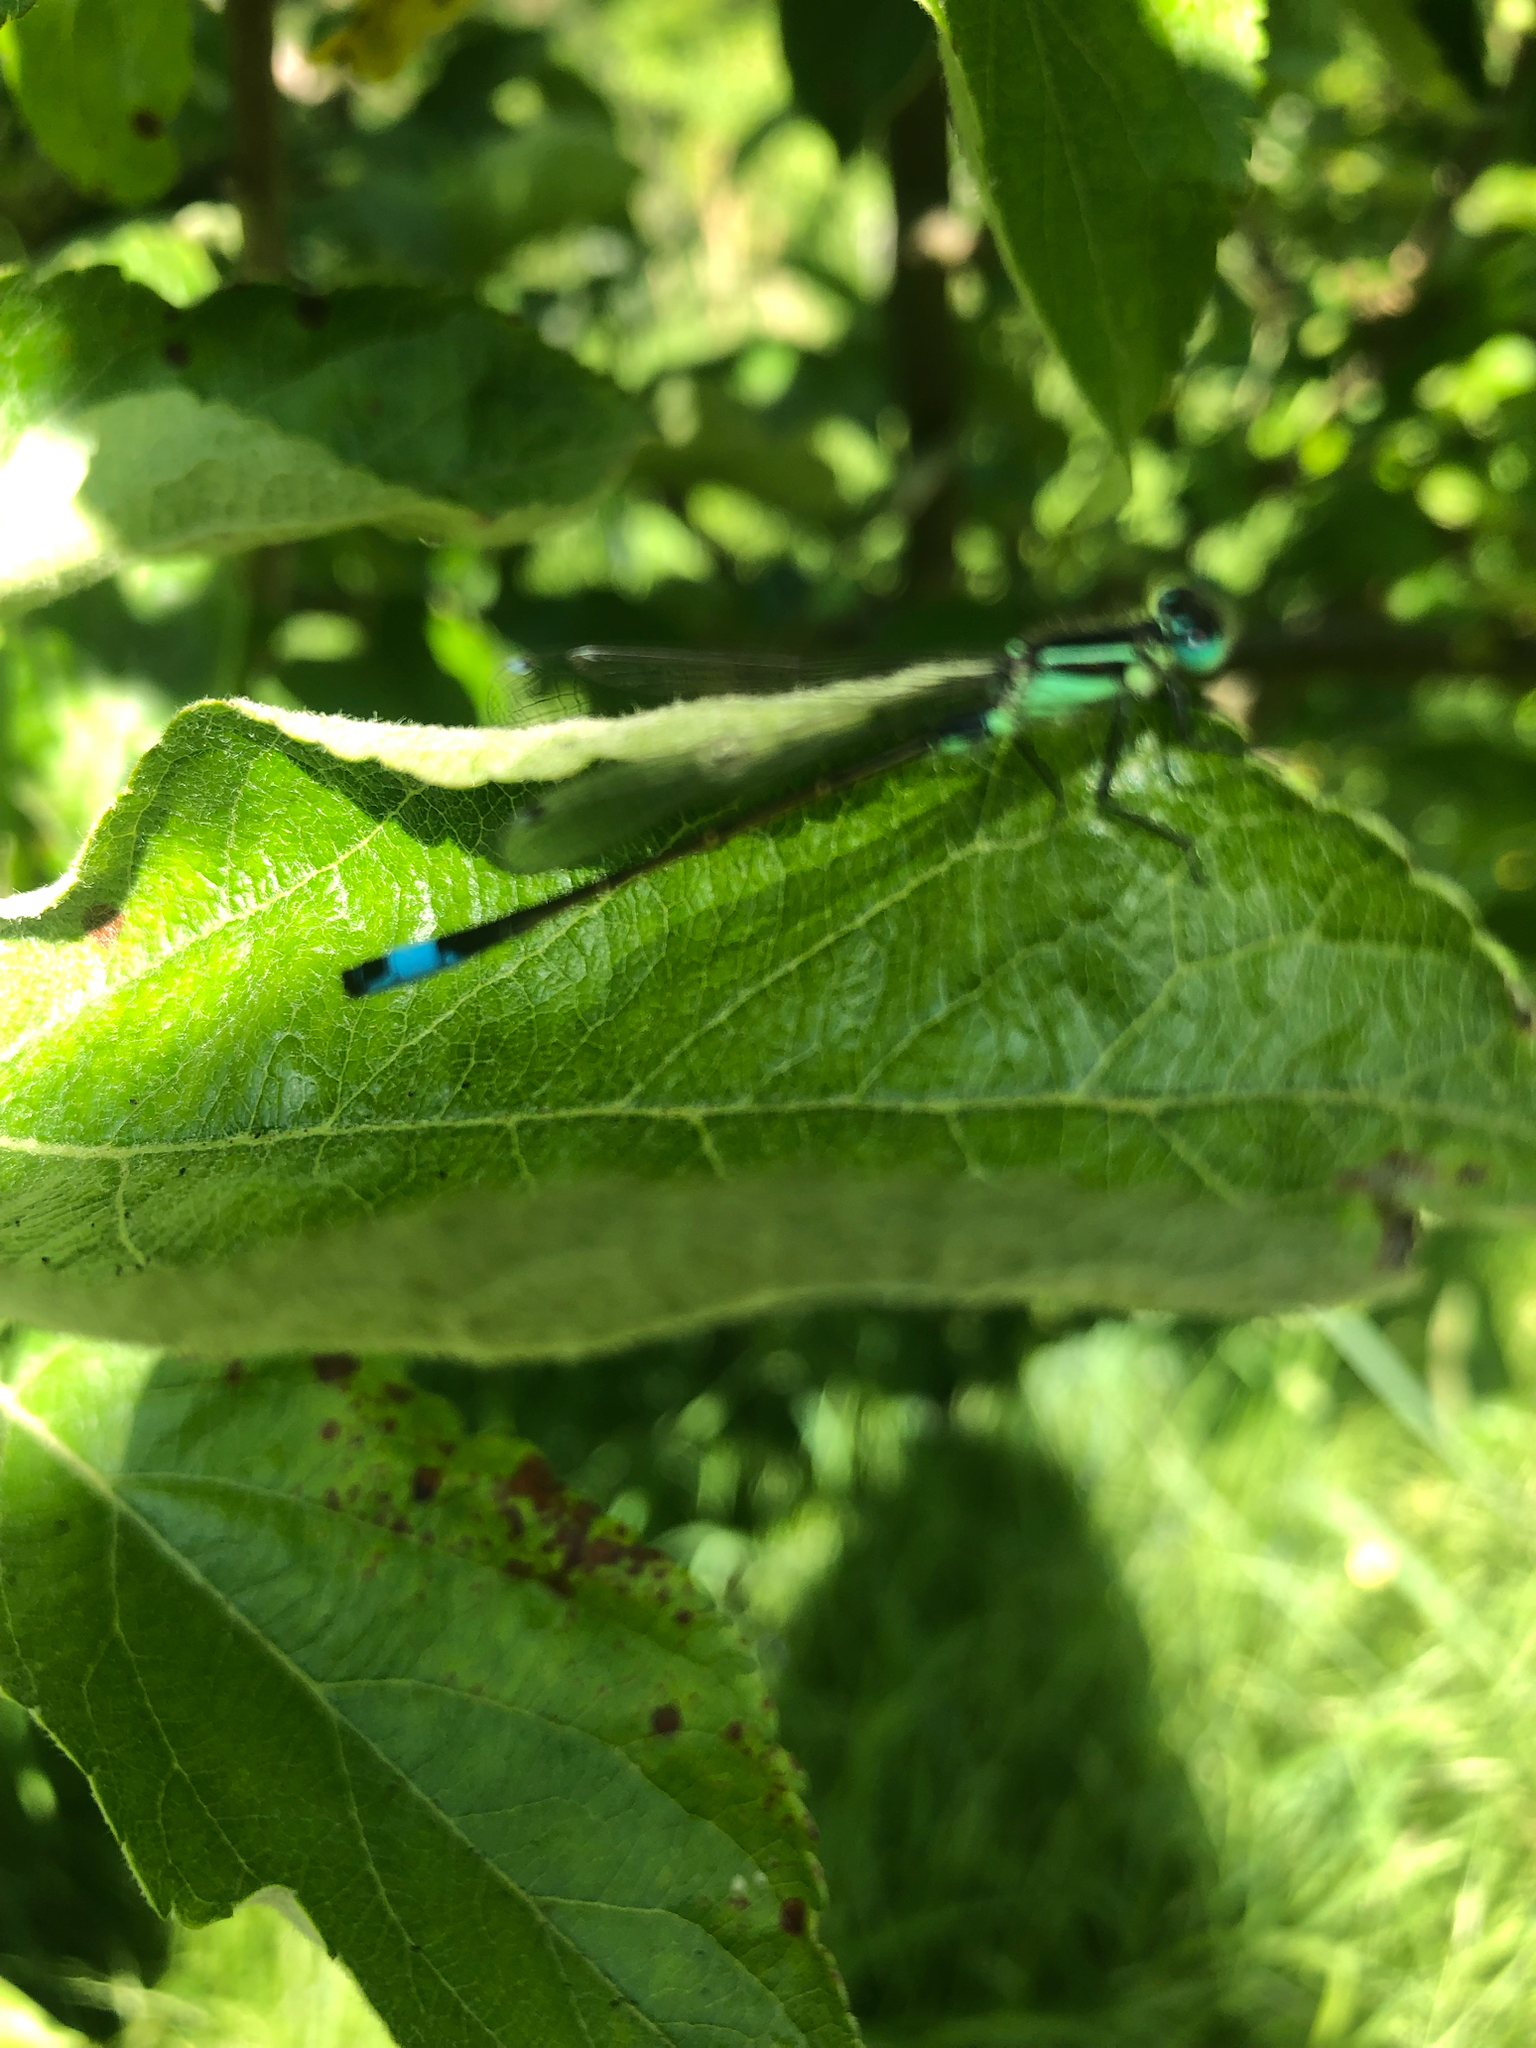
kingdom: Animalia
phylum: Arthropoda
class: Insecta
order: Odonata
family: Coenagrionidae
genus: Ischnura
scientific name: Ischnura elegans
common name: Blue-tailed damselfly
